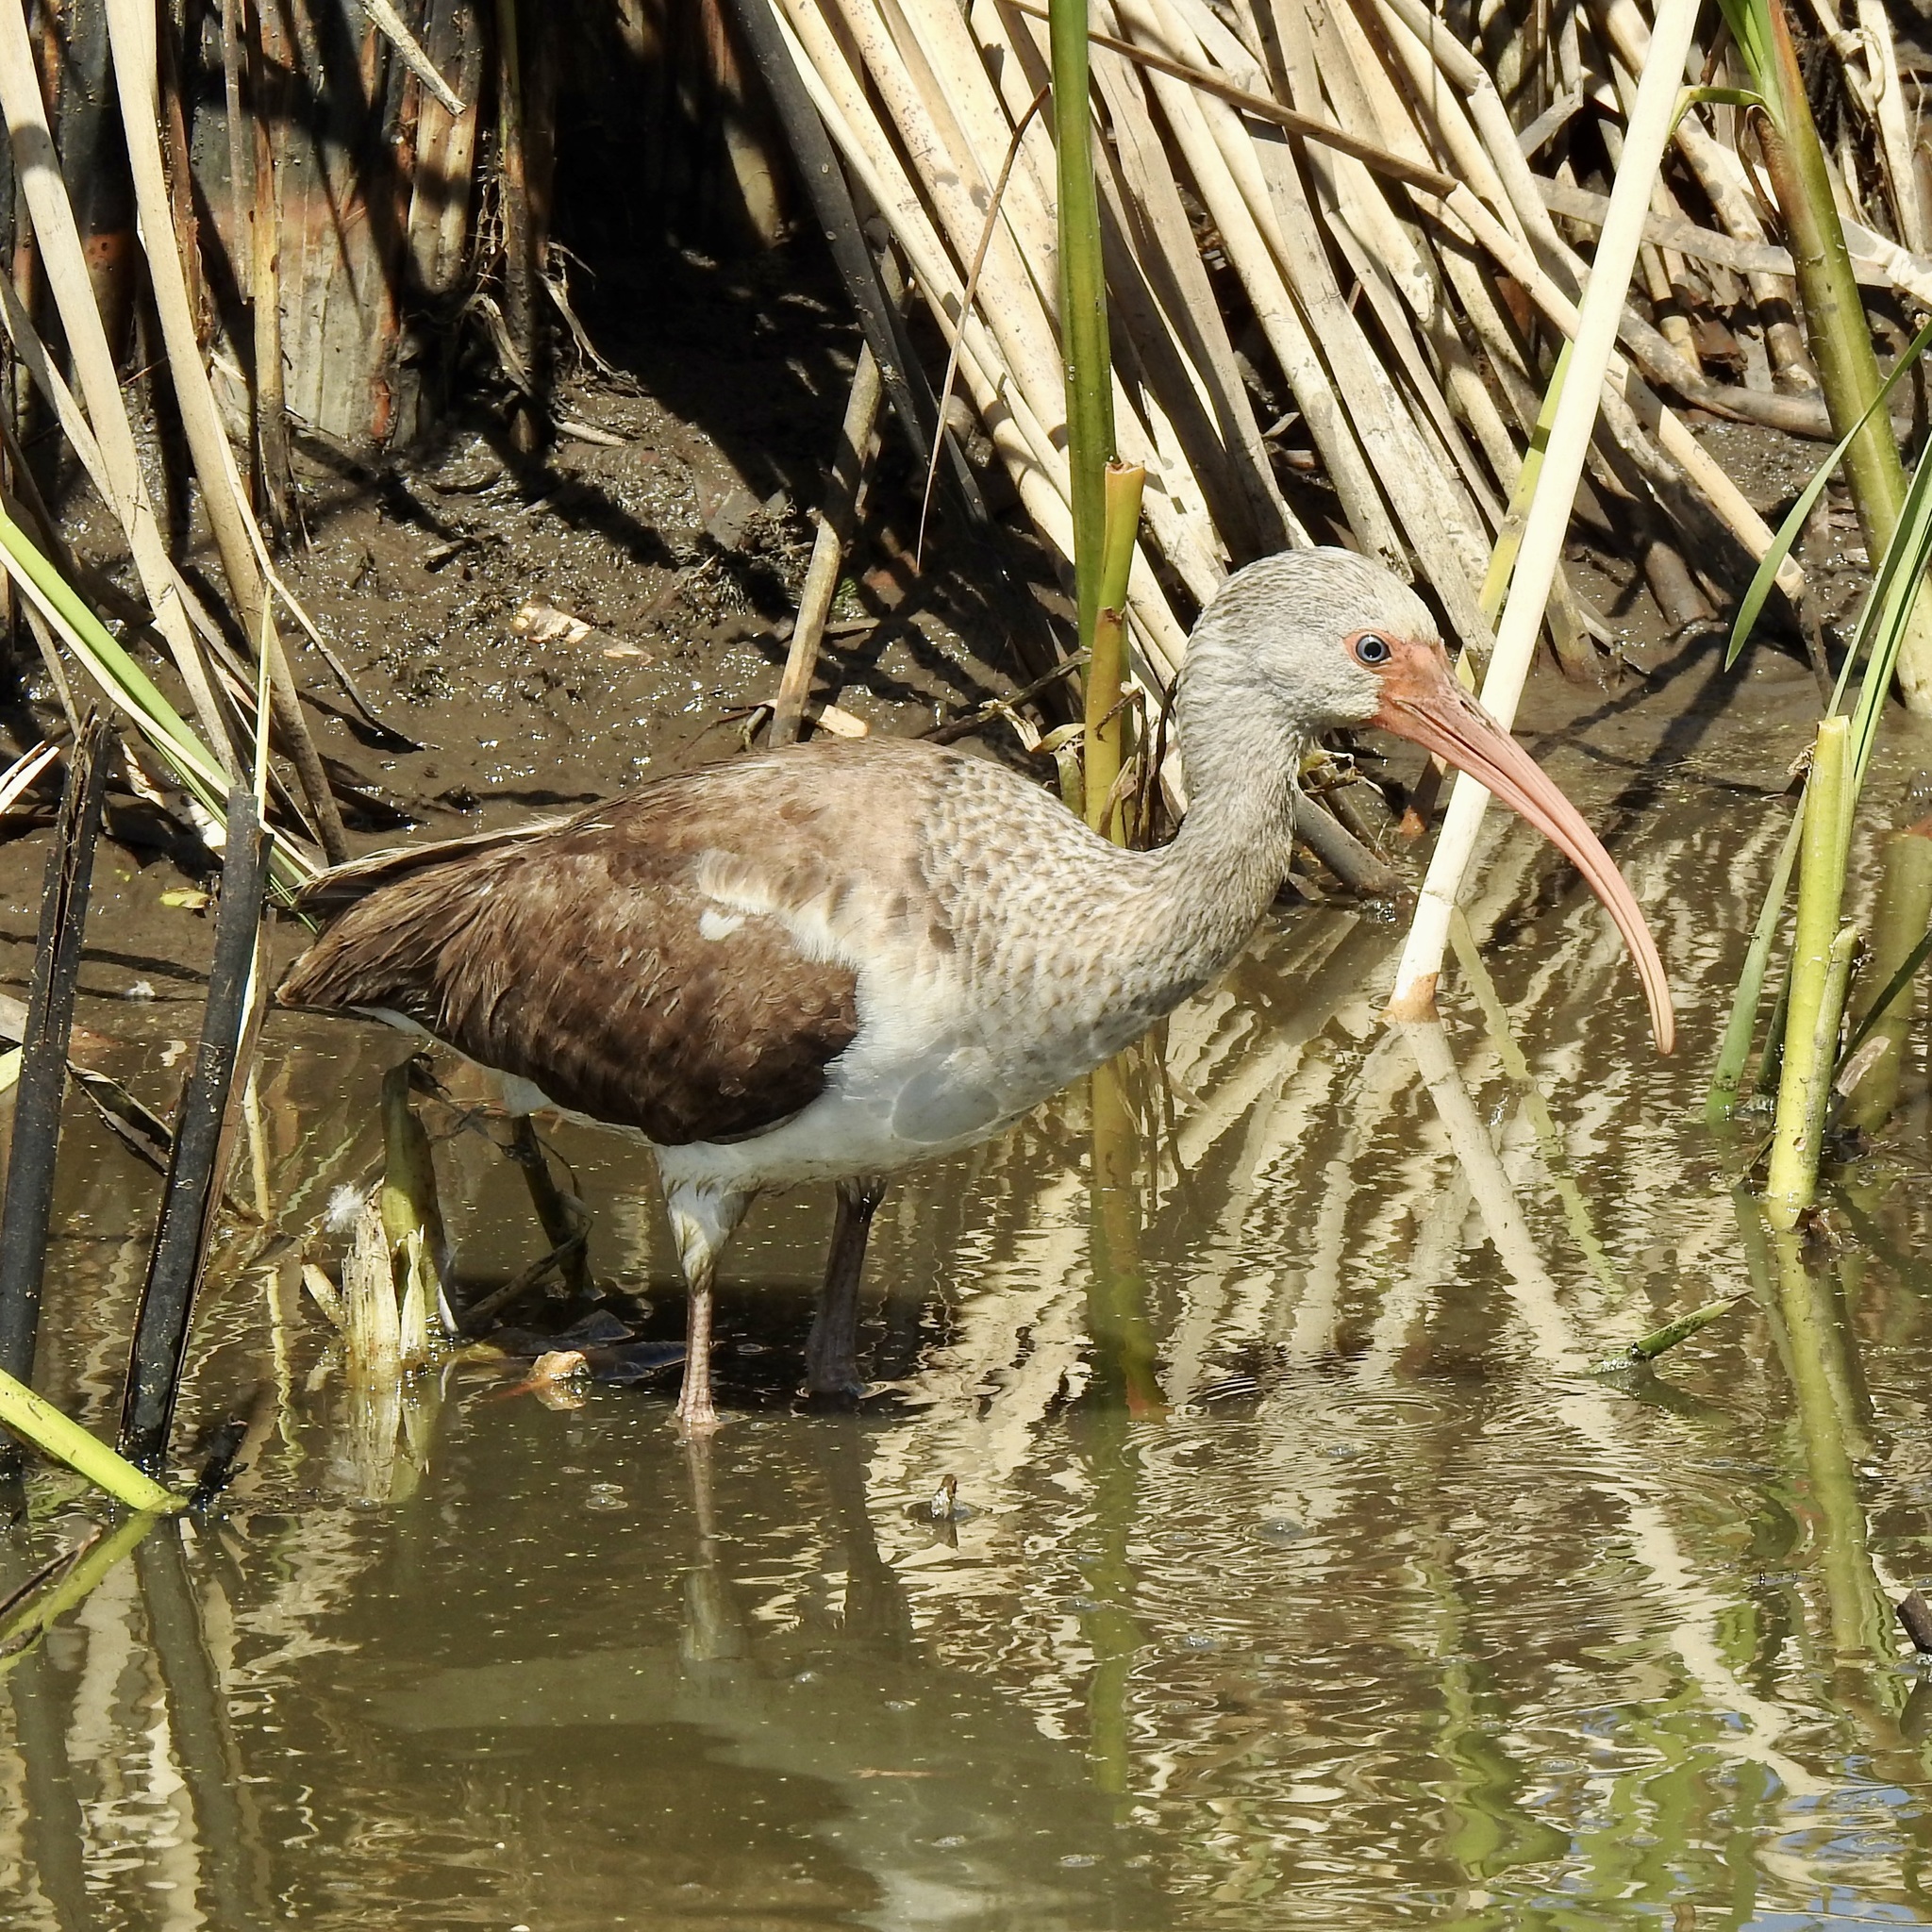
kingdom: Animalia
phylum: Chordata
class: Aves
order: Pelecaniformes
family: Threskiornithidae
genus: Eudocimus
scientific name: Eudocimus albus
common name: White ibis
